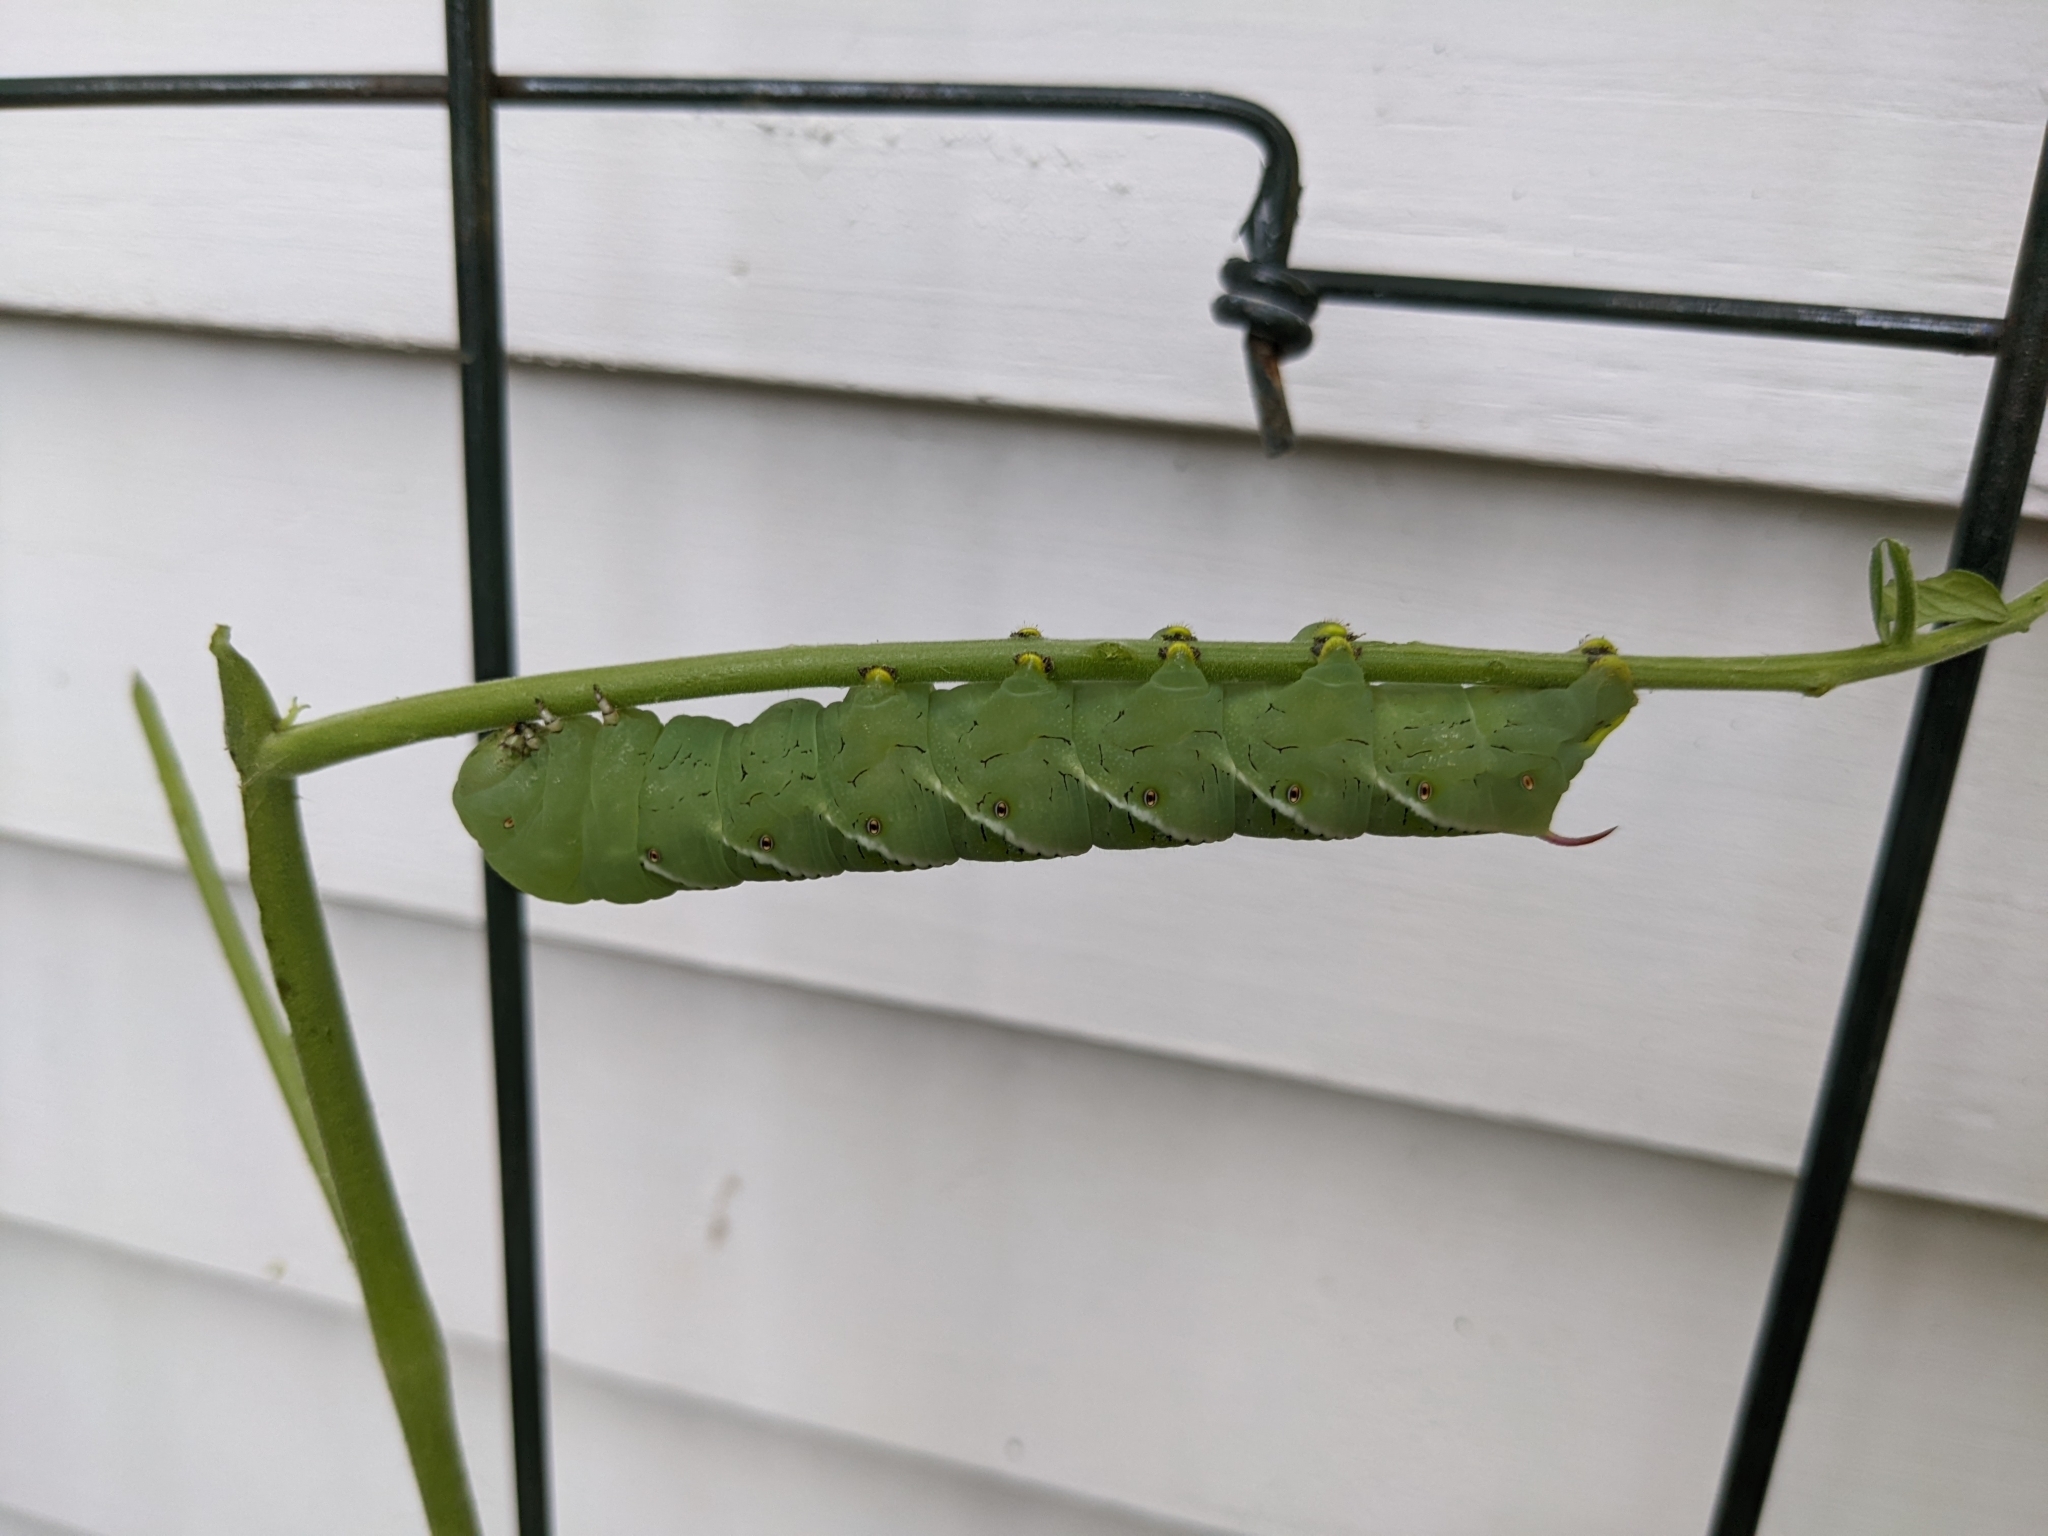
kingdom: Animalia
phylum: Arthropoda
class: Insecta
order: Lepidoptera
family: Sphingidae
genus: Manduca
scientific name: Manduca sexta
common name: Carolina sphinx
